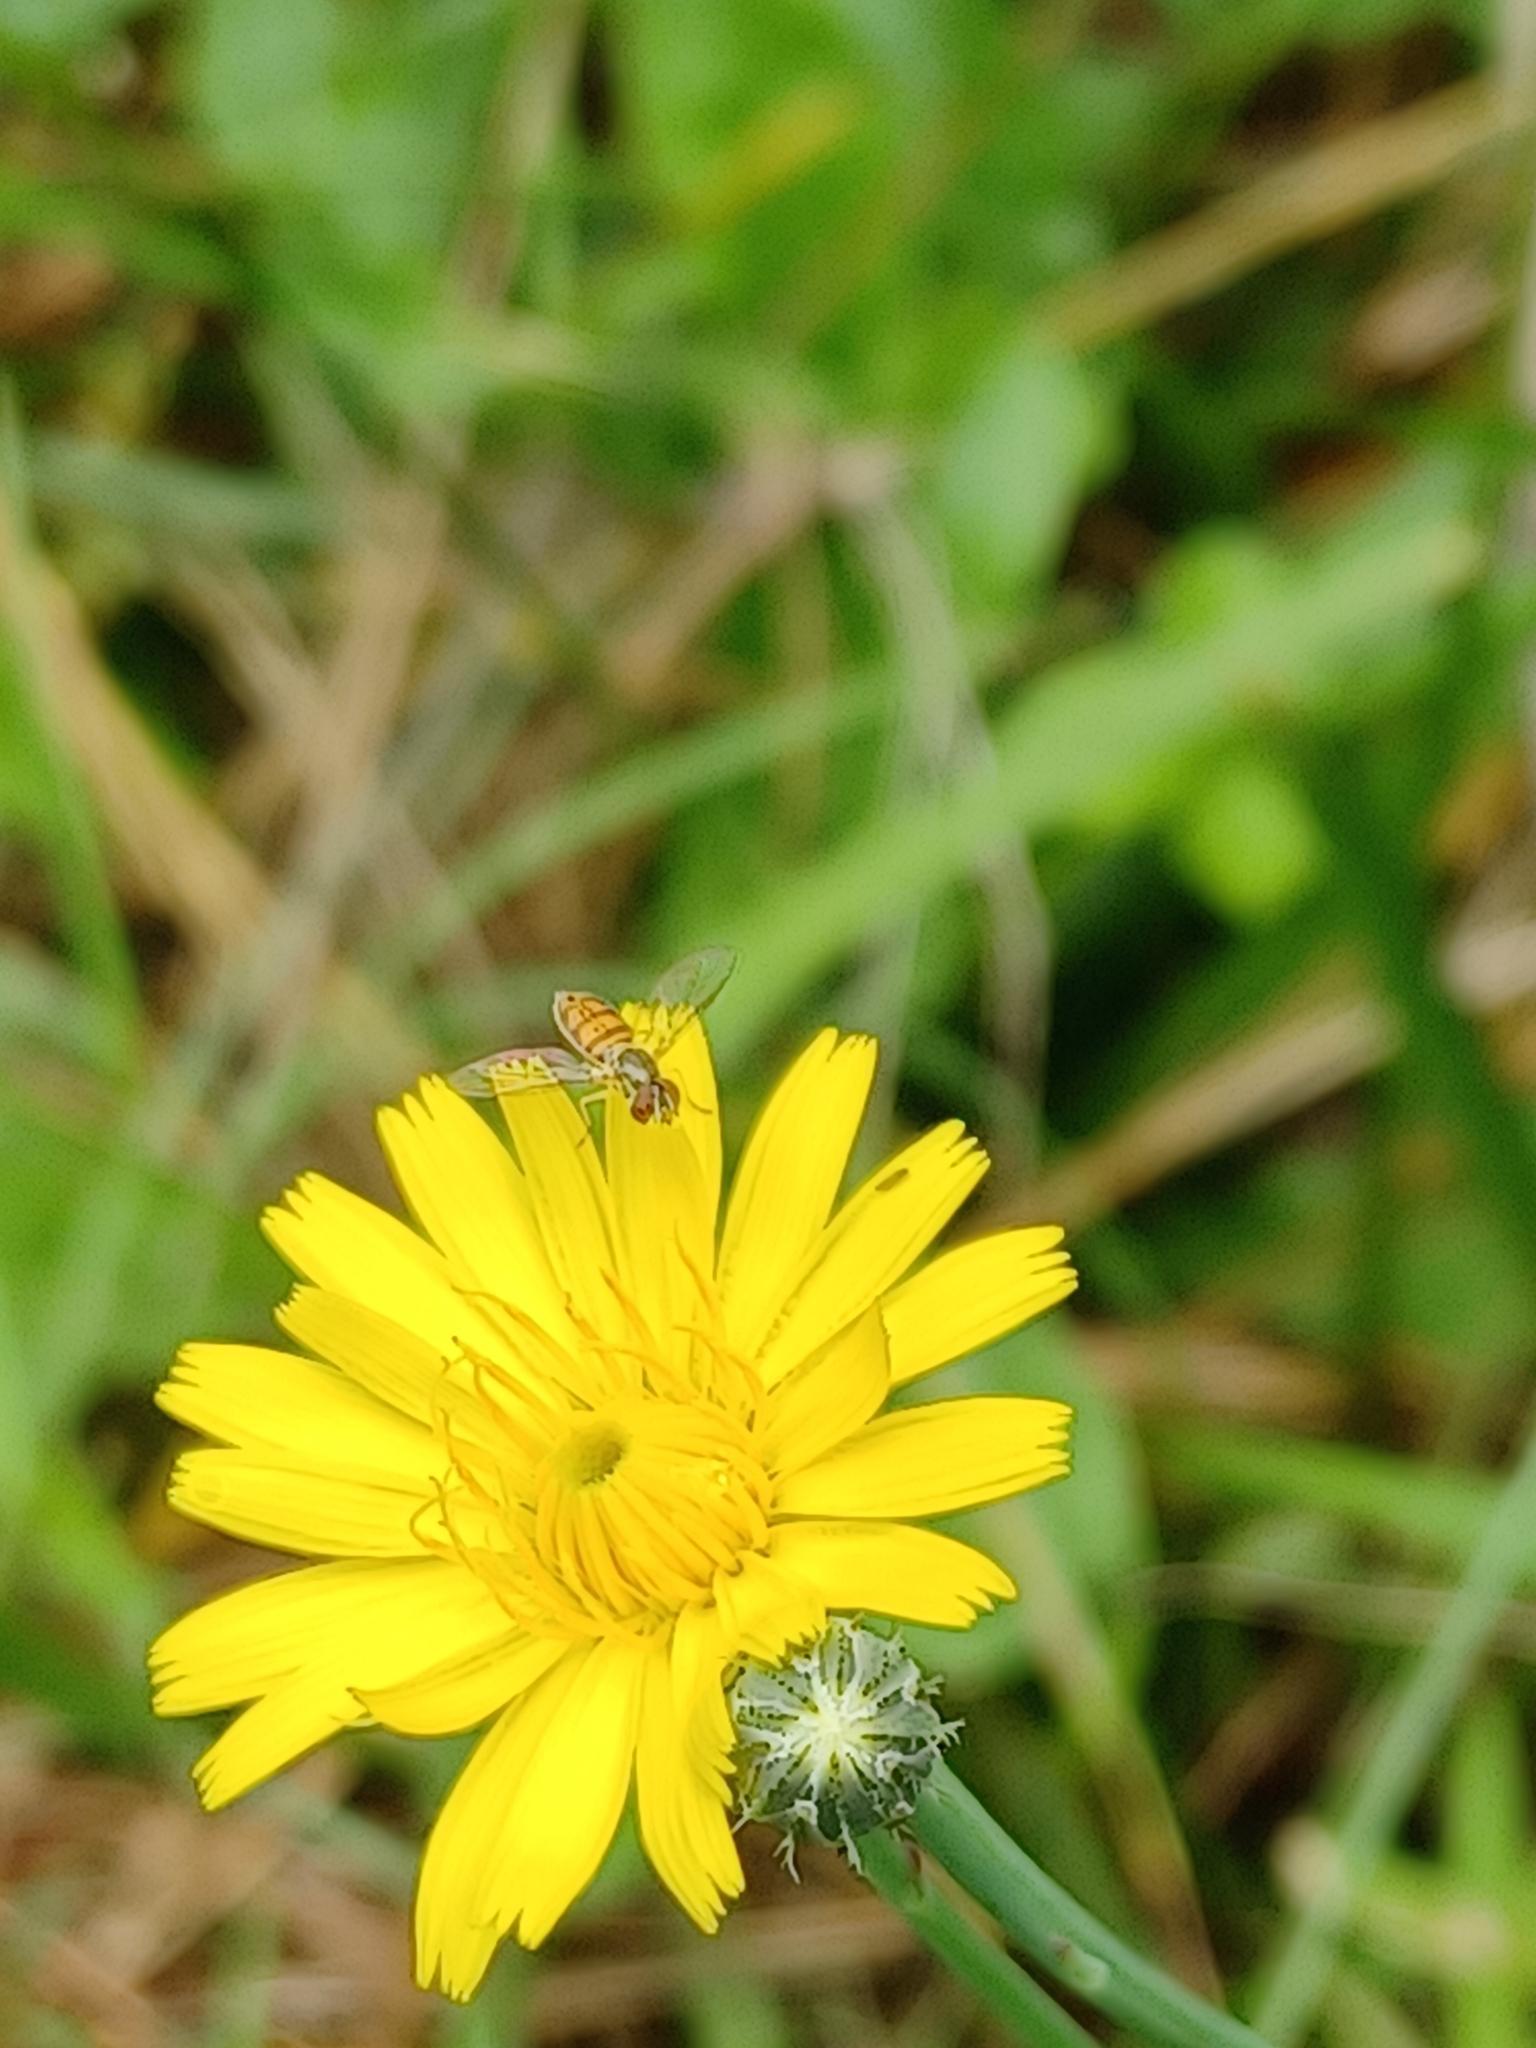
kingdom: Animalia
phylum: Arthropoda
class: Insecta
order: Diptera
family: Syrphidae
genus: Toxomerus
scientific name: Toxomerus marginatus
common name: Syrphid fly
